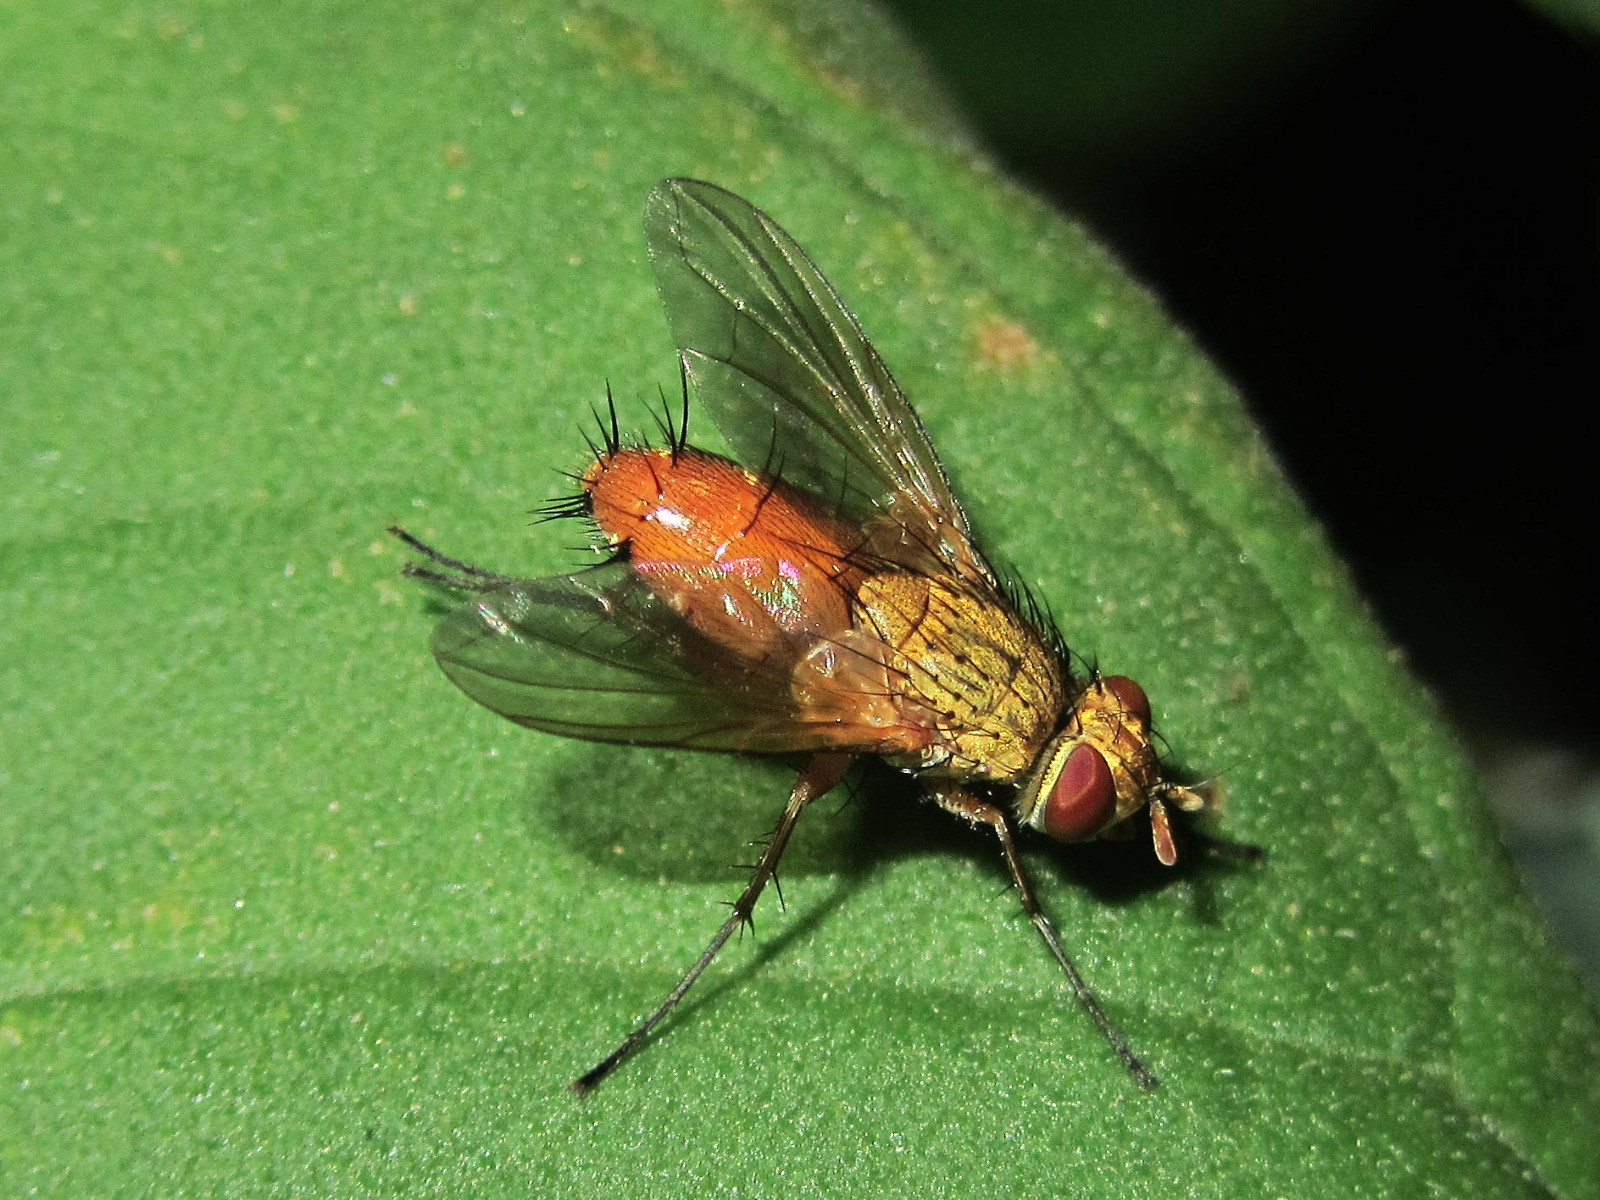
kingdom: Animalia
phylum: Arthropoda
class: Insecta
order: Diptera
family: Tachinidae
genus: Leskia
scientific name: Leskia aurea
